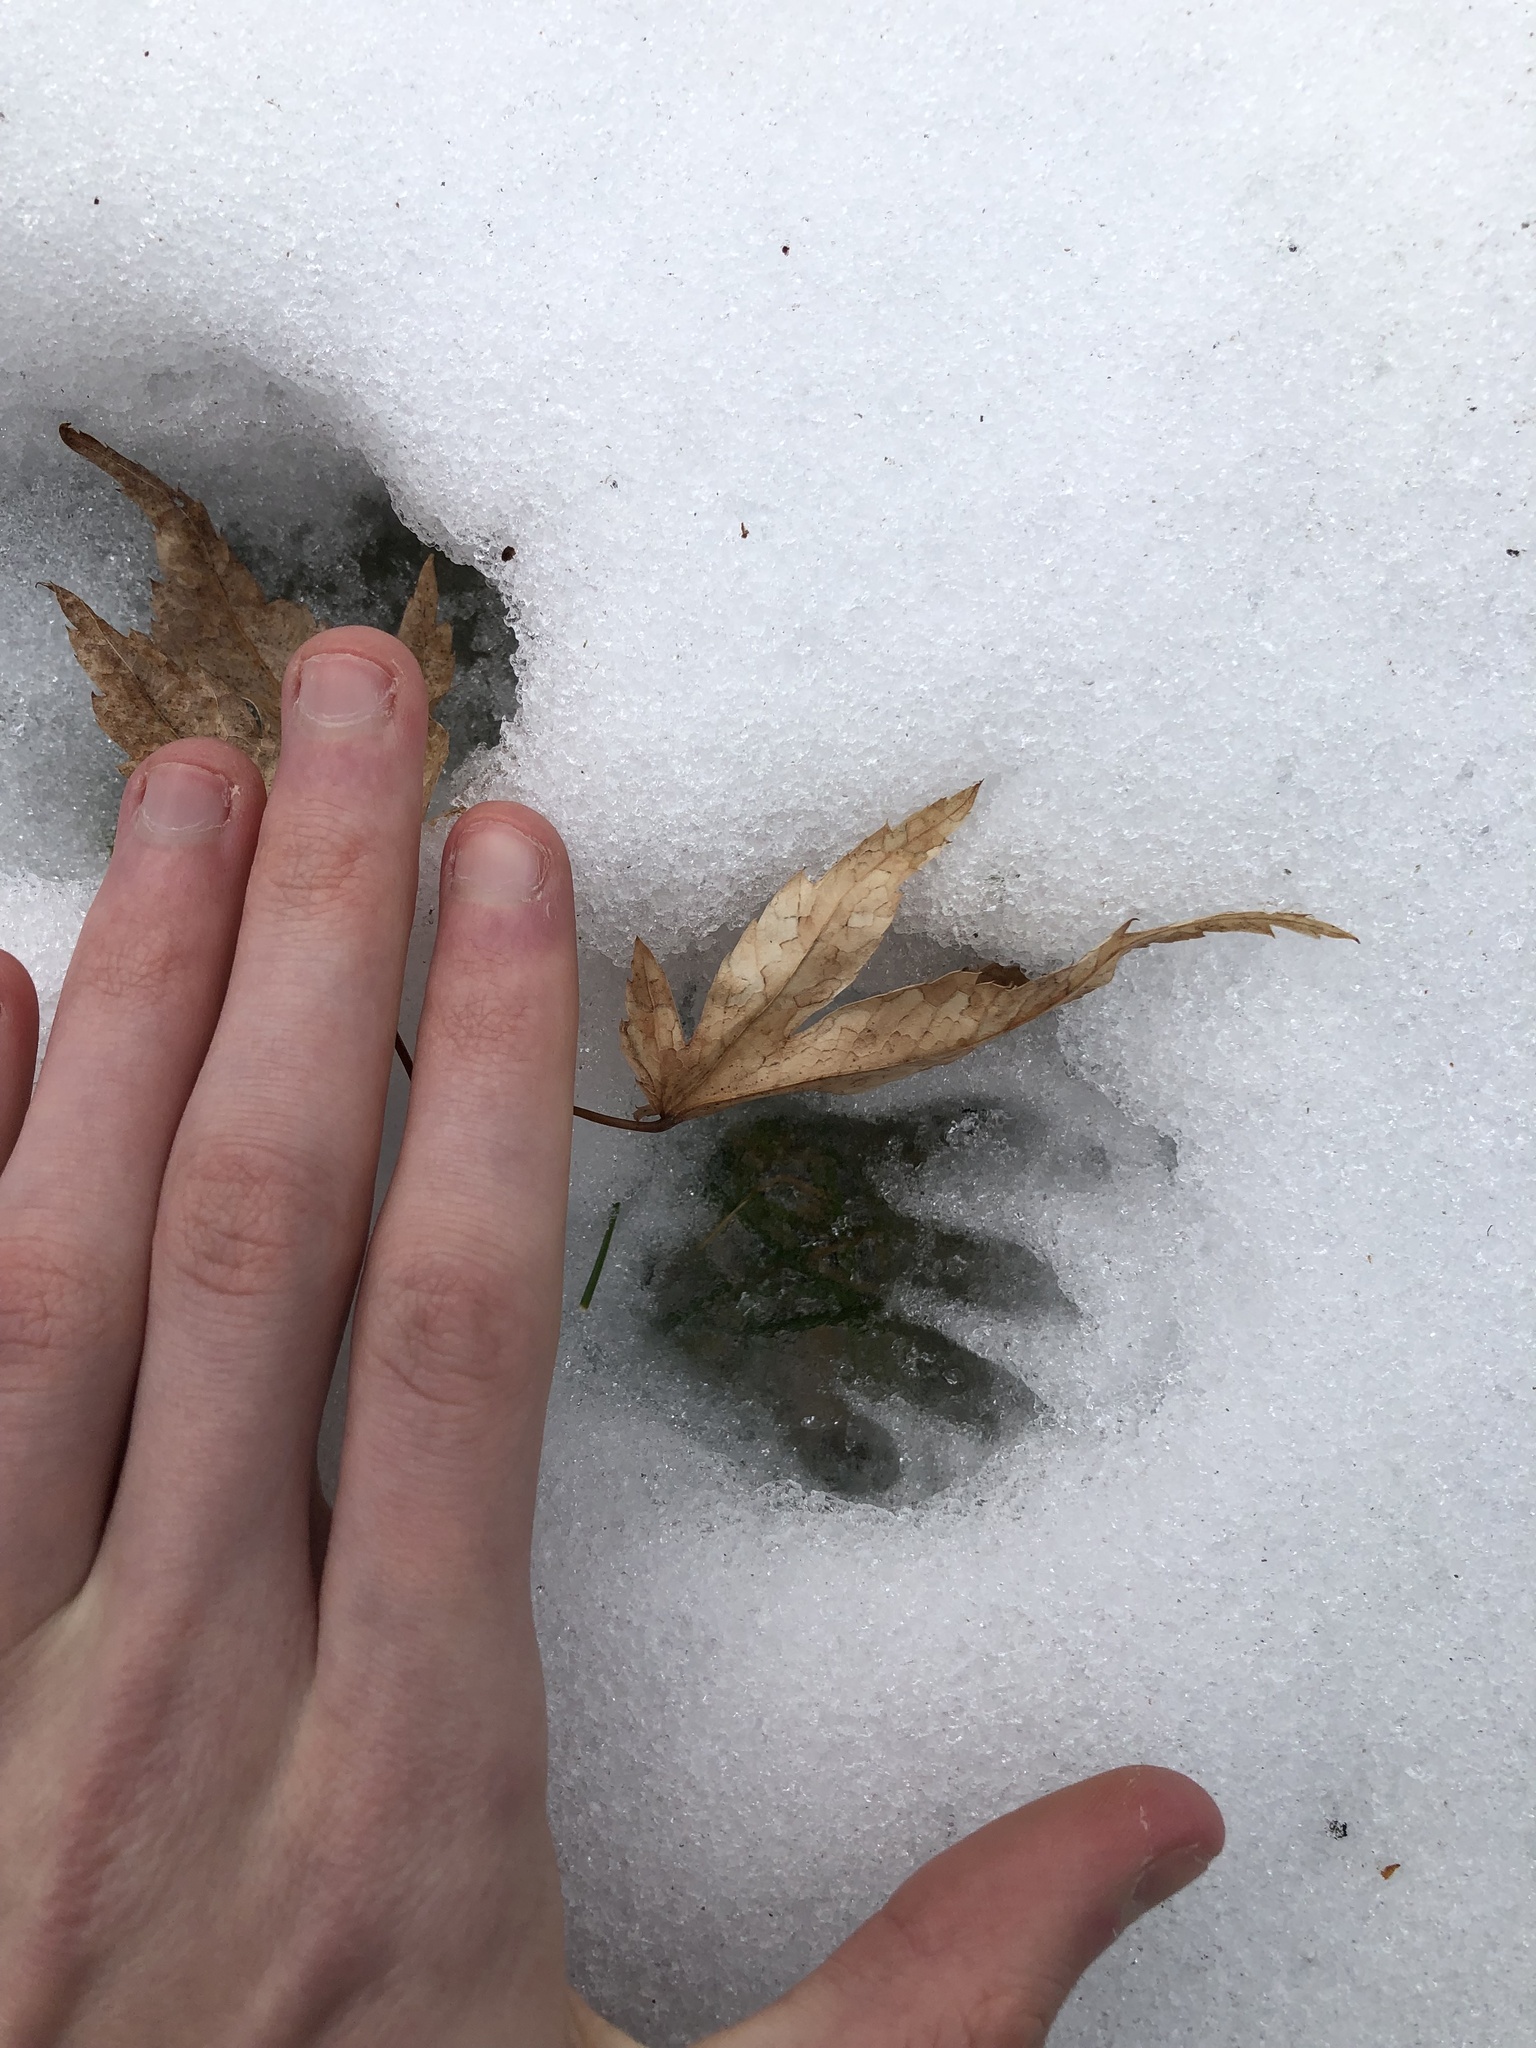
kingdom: Animalia
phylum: Chordata
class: Mammalia
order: Carnivora
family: Procyonidae
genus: Procyon
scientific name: Procyon lotor
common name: Raccoon
